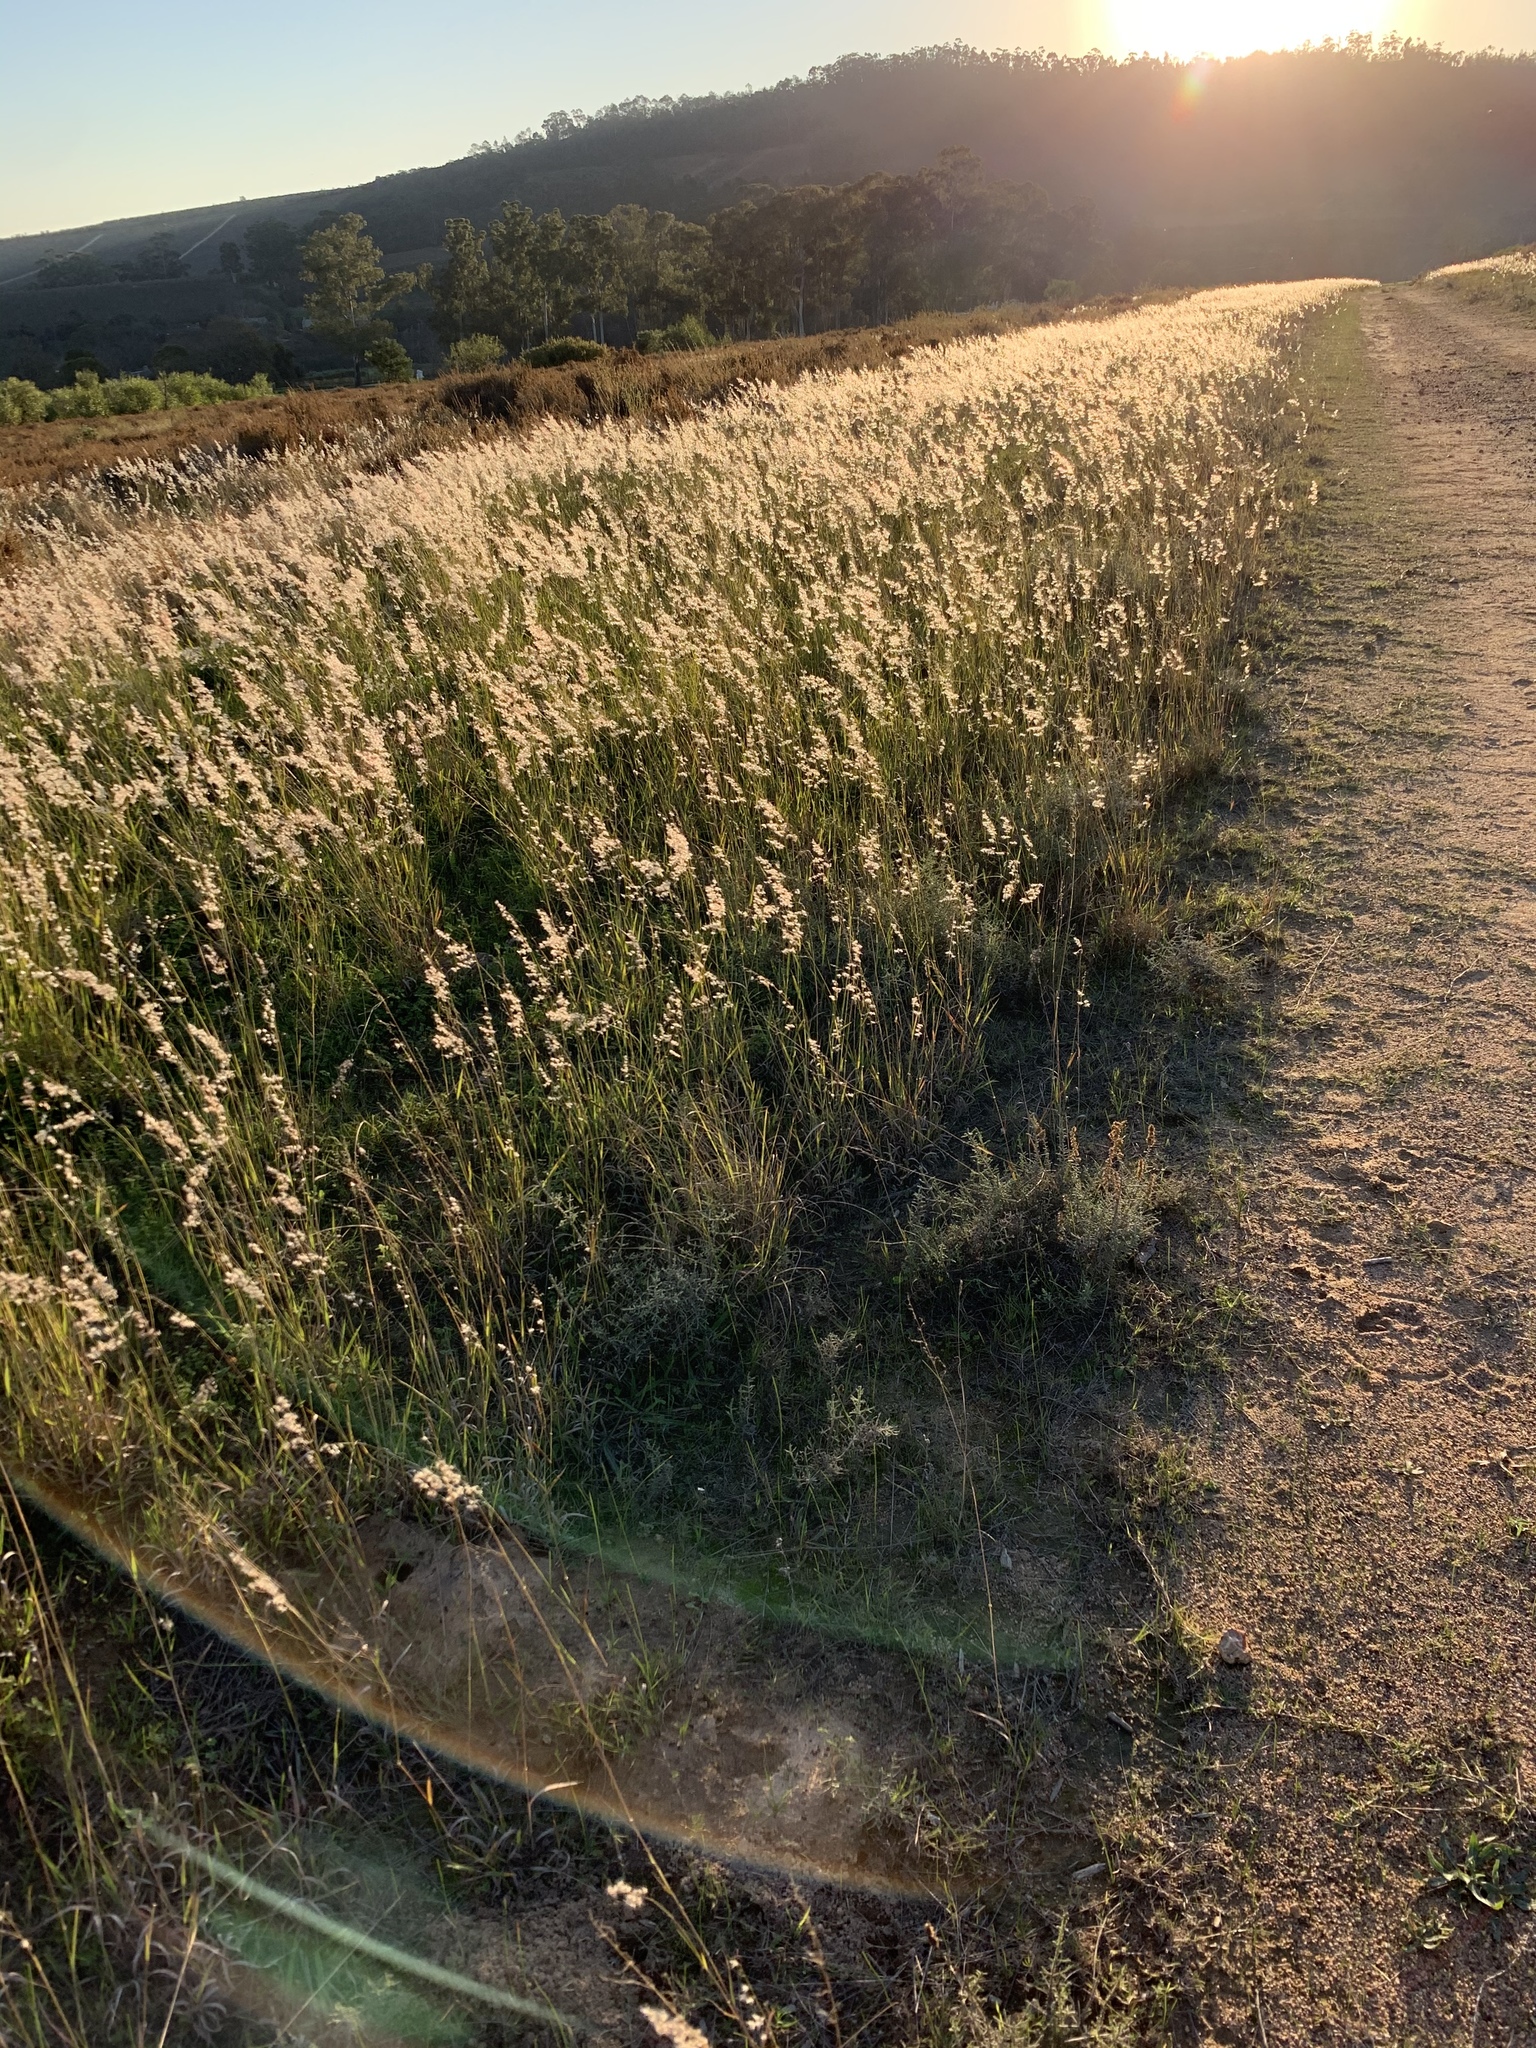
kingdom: Plantae
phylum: Tracheophyta
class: Liliopsida
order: Poales
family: Poaceae
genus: Melinis
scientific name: Melinis repens
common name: Rose natal grass
